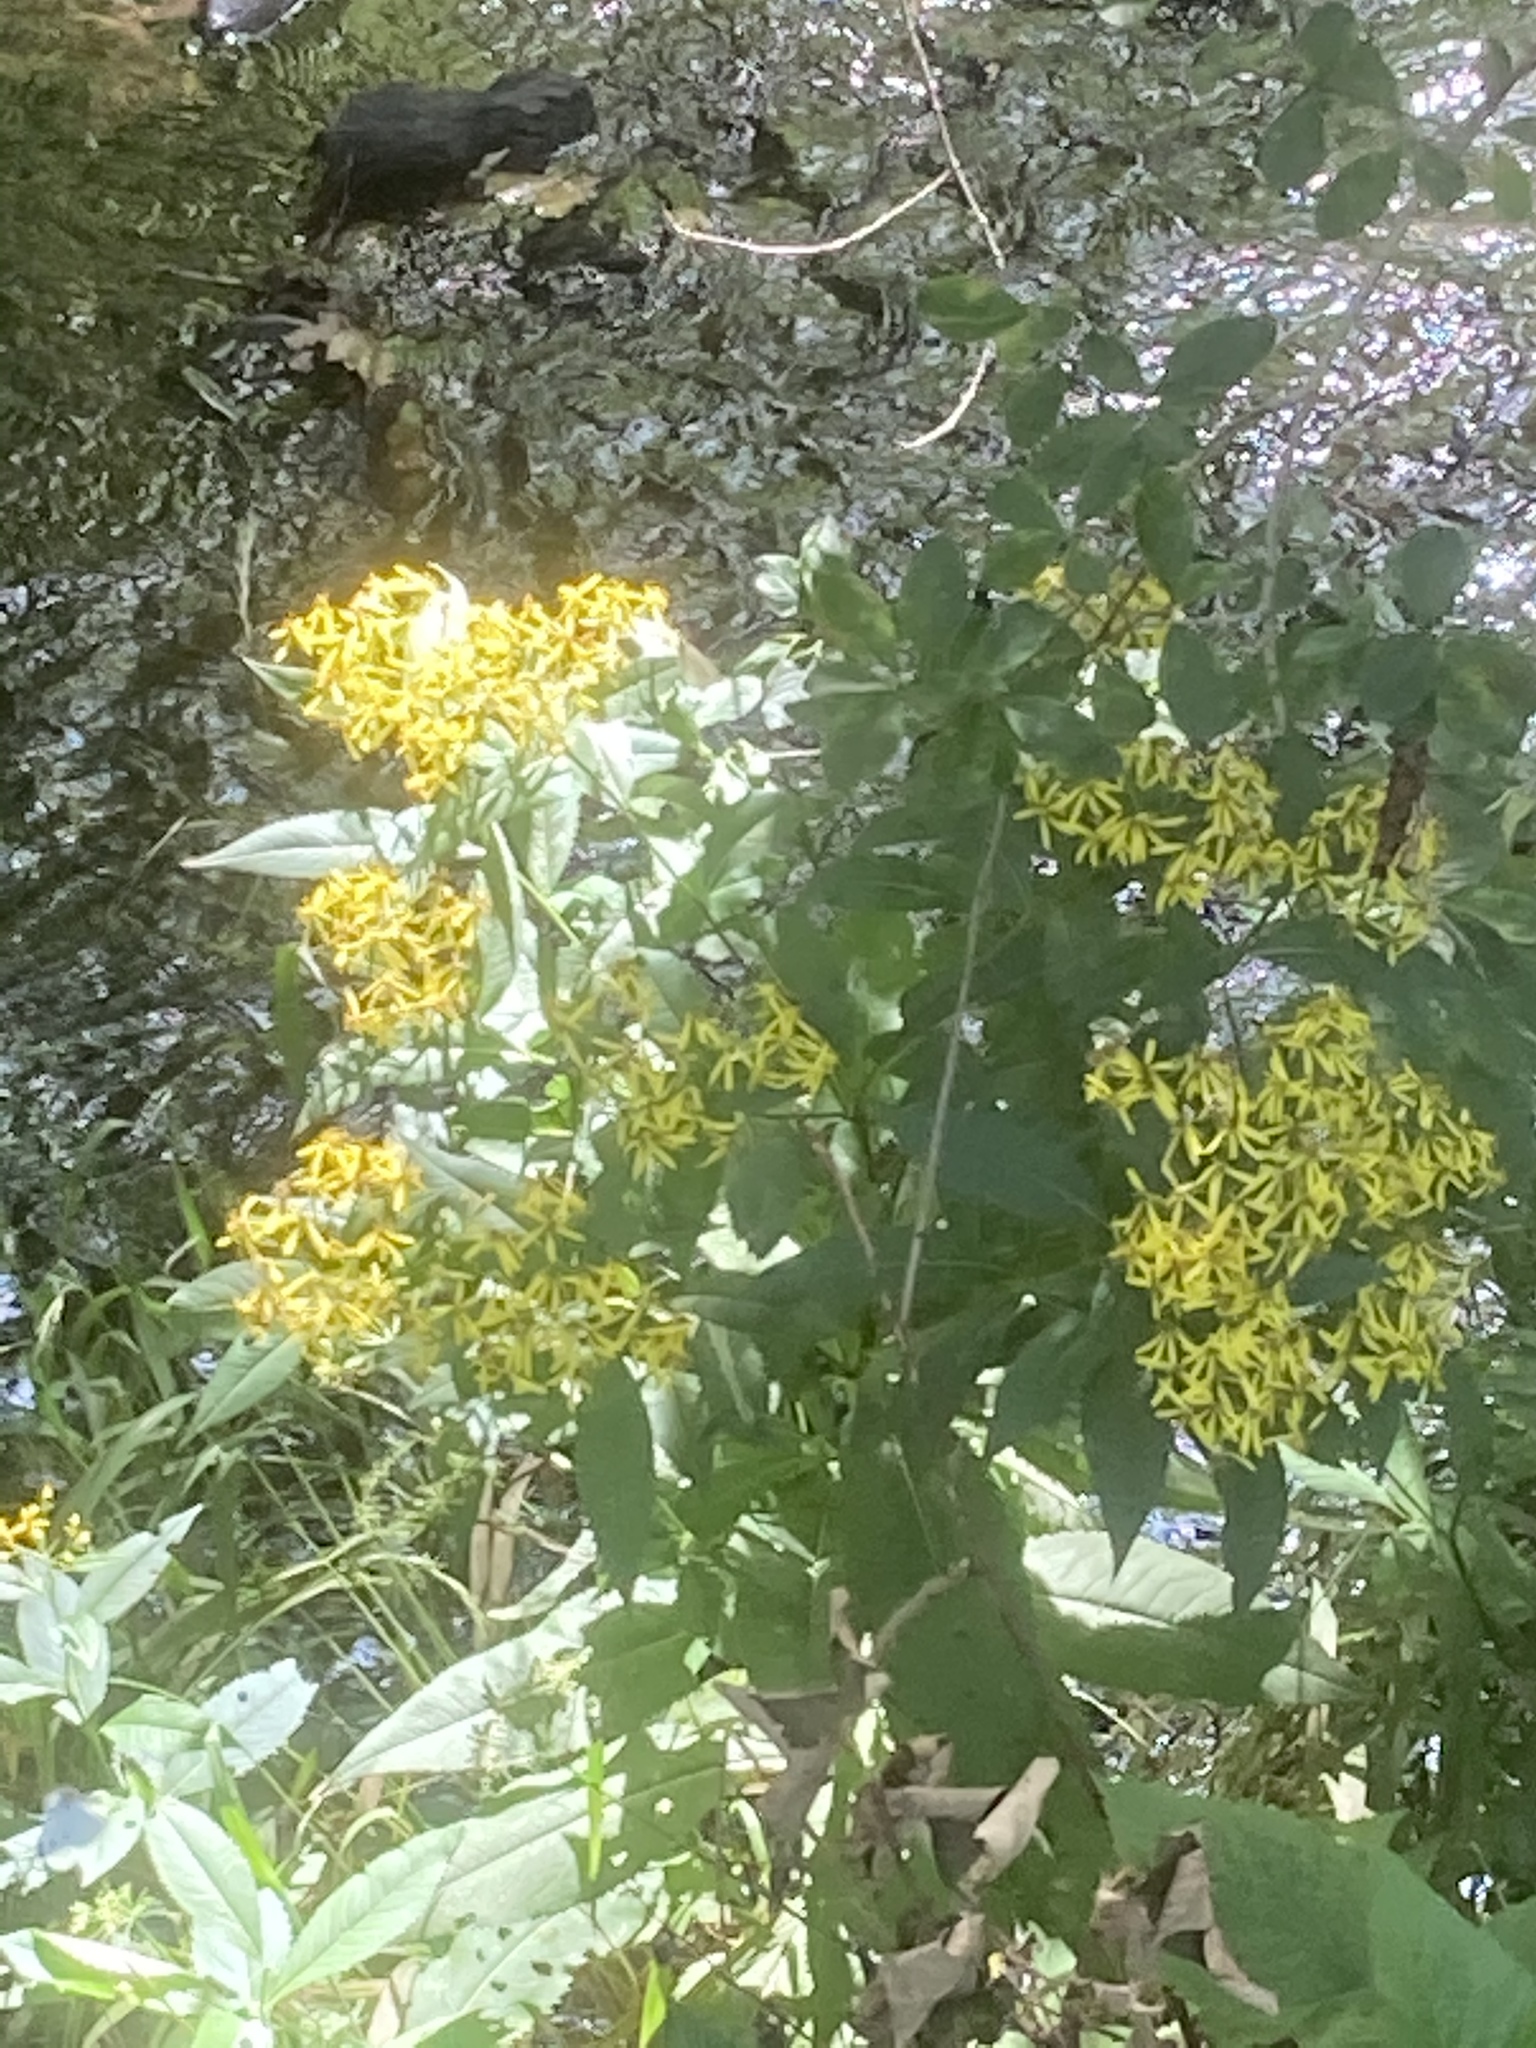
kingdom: Plantae
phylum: Tracheophyta
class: Magnoliopsida
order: Asterales
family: Asteraceae
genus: Senecio
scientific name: Senecio ovatus
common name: Wood ragwort
